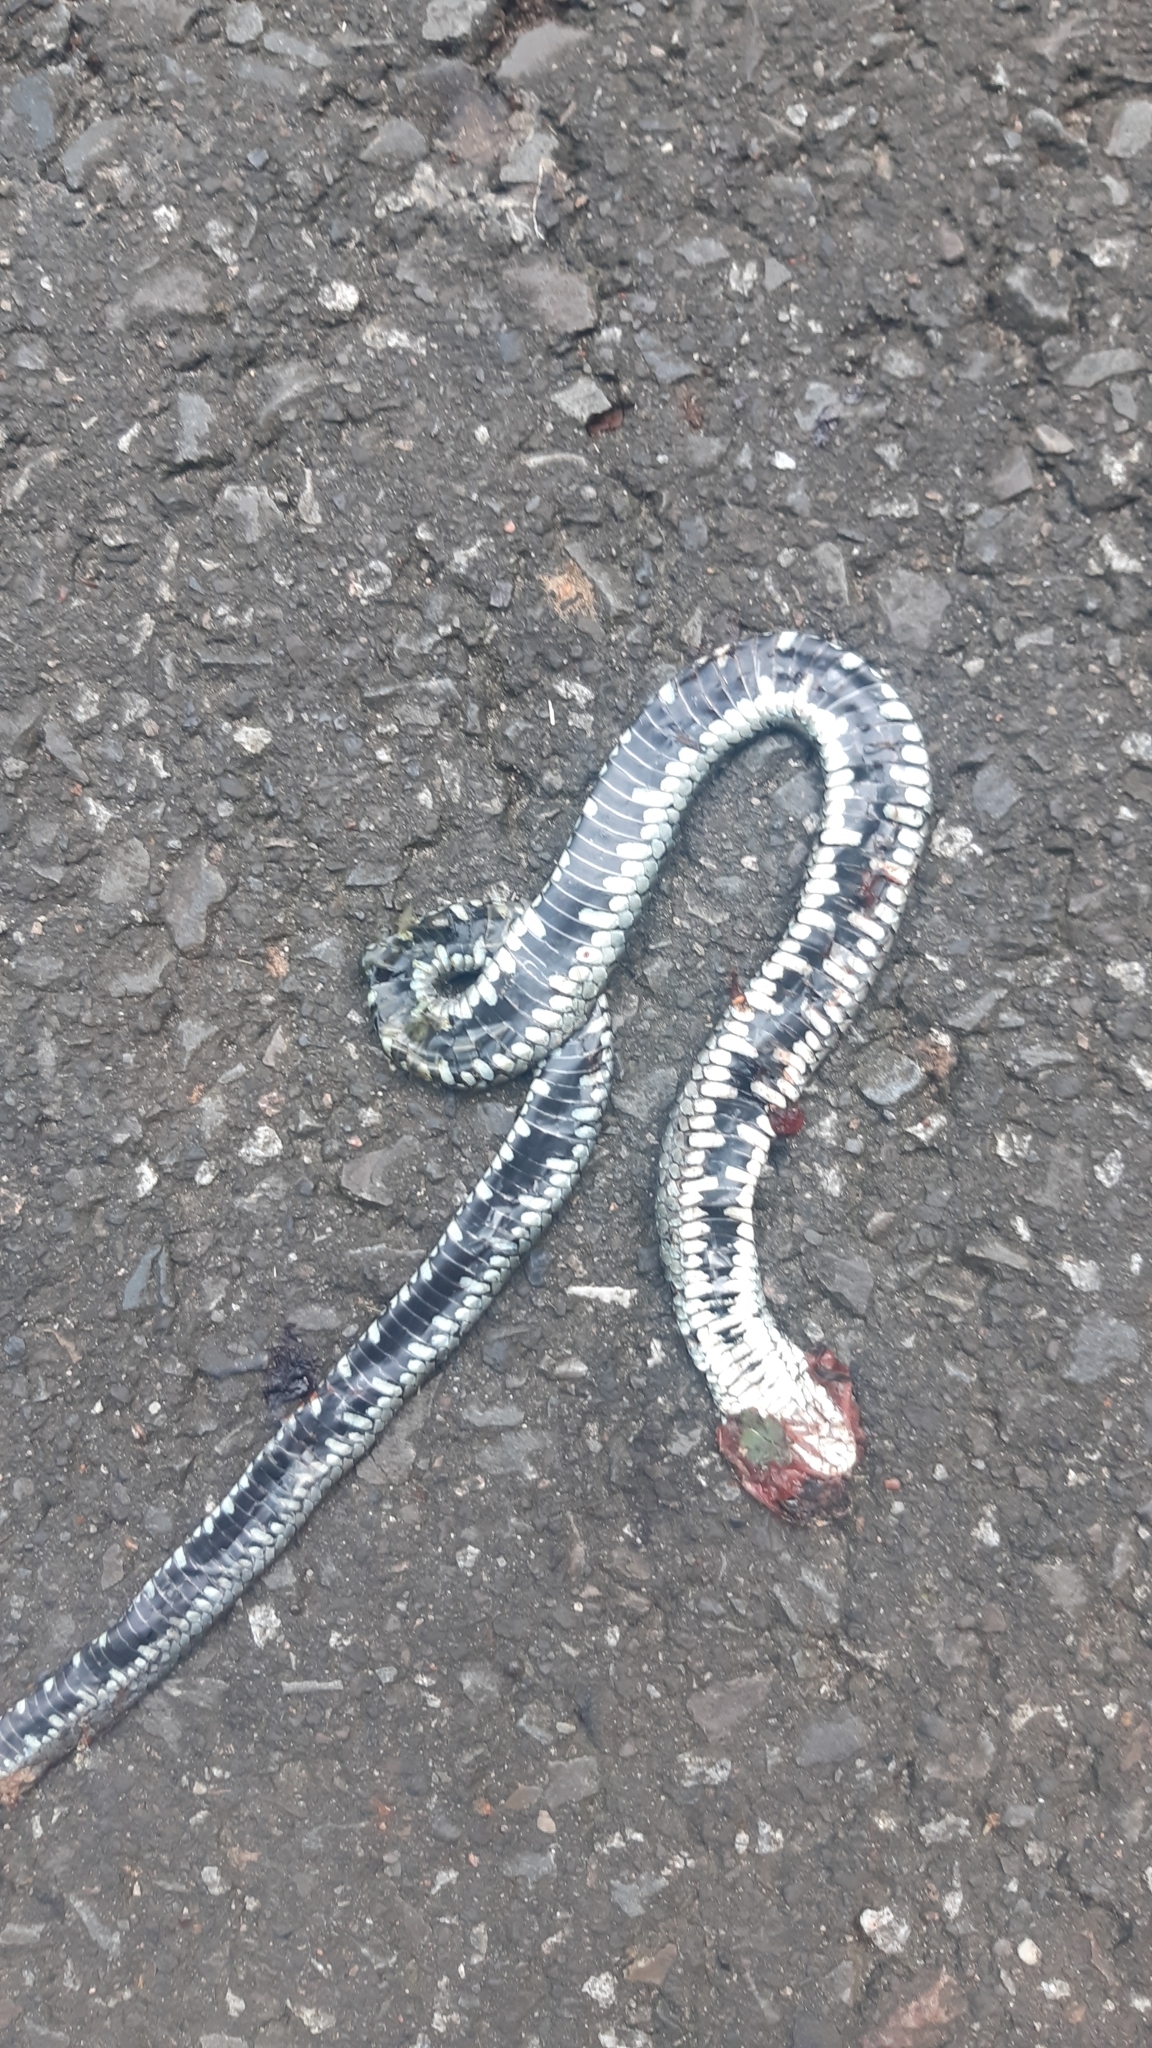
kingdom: Animalia
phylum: Chordata
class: Squamata
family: Colubridae
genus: Natrix
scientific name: Natrix natrix
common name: Grass snake
